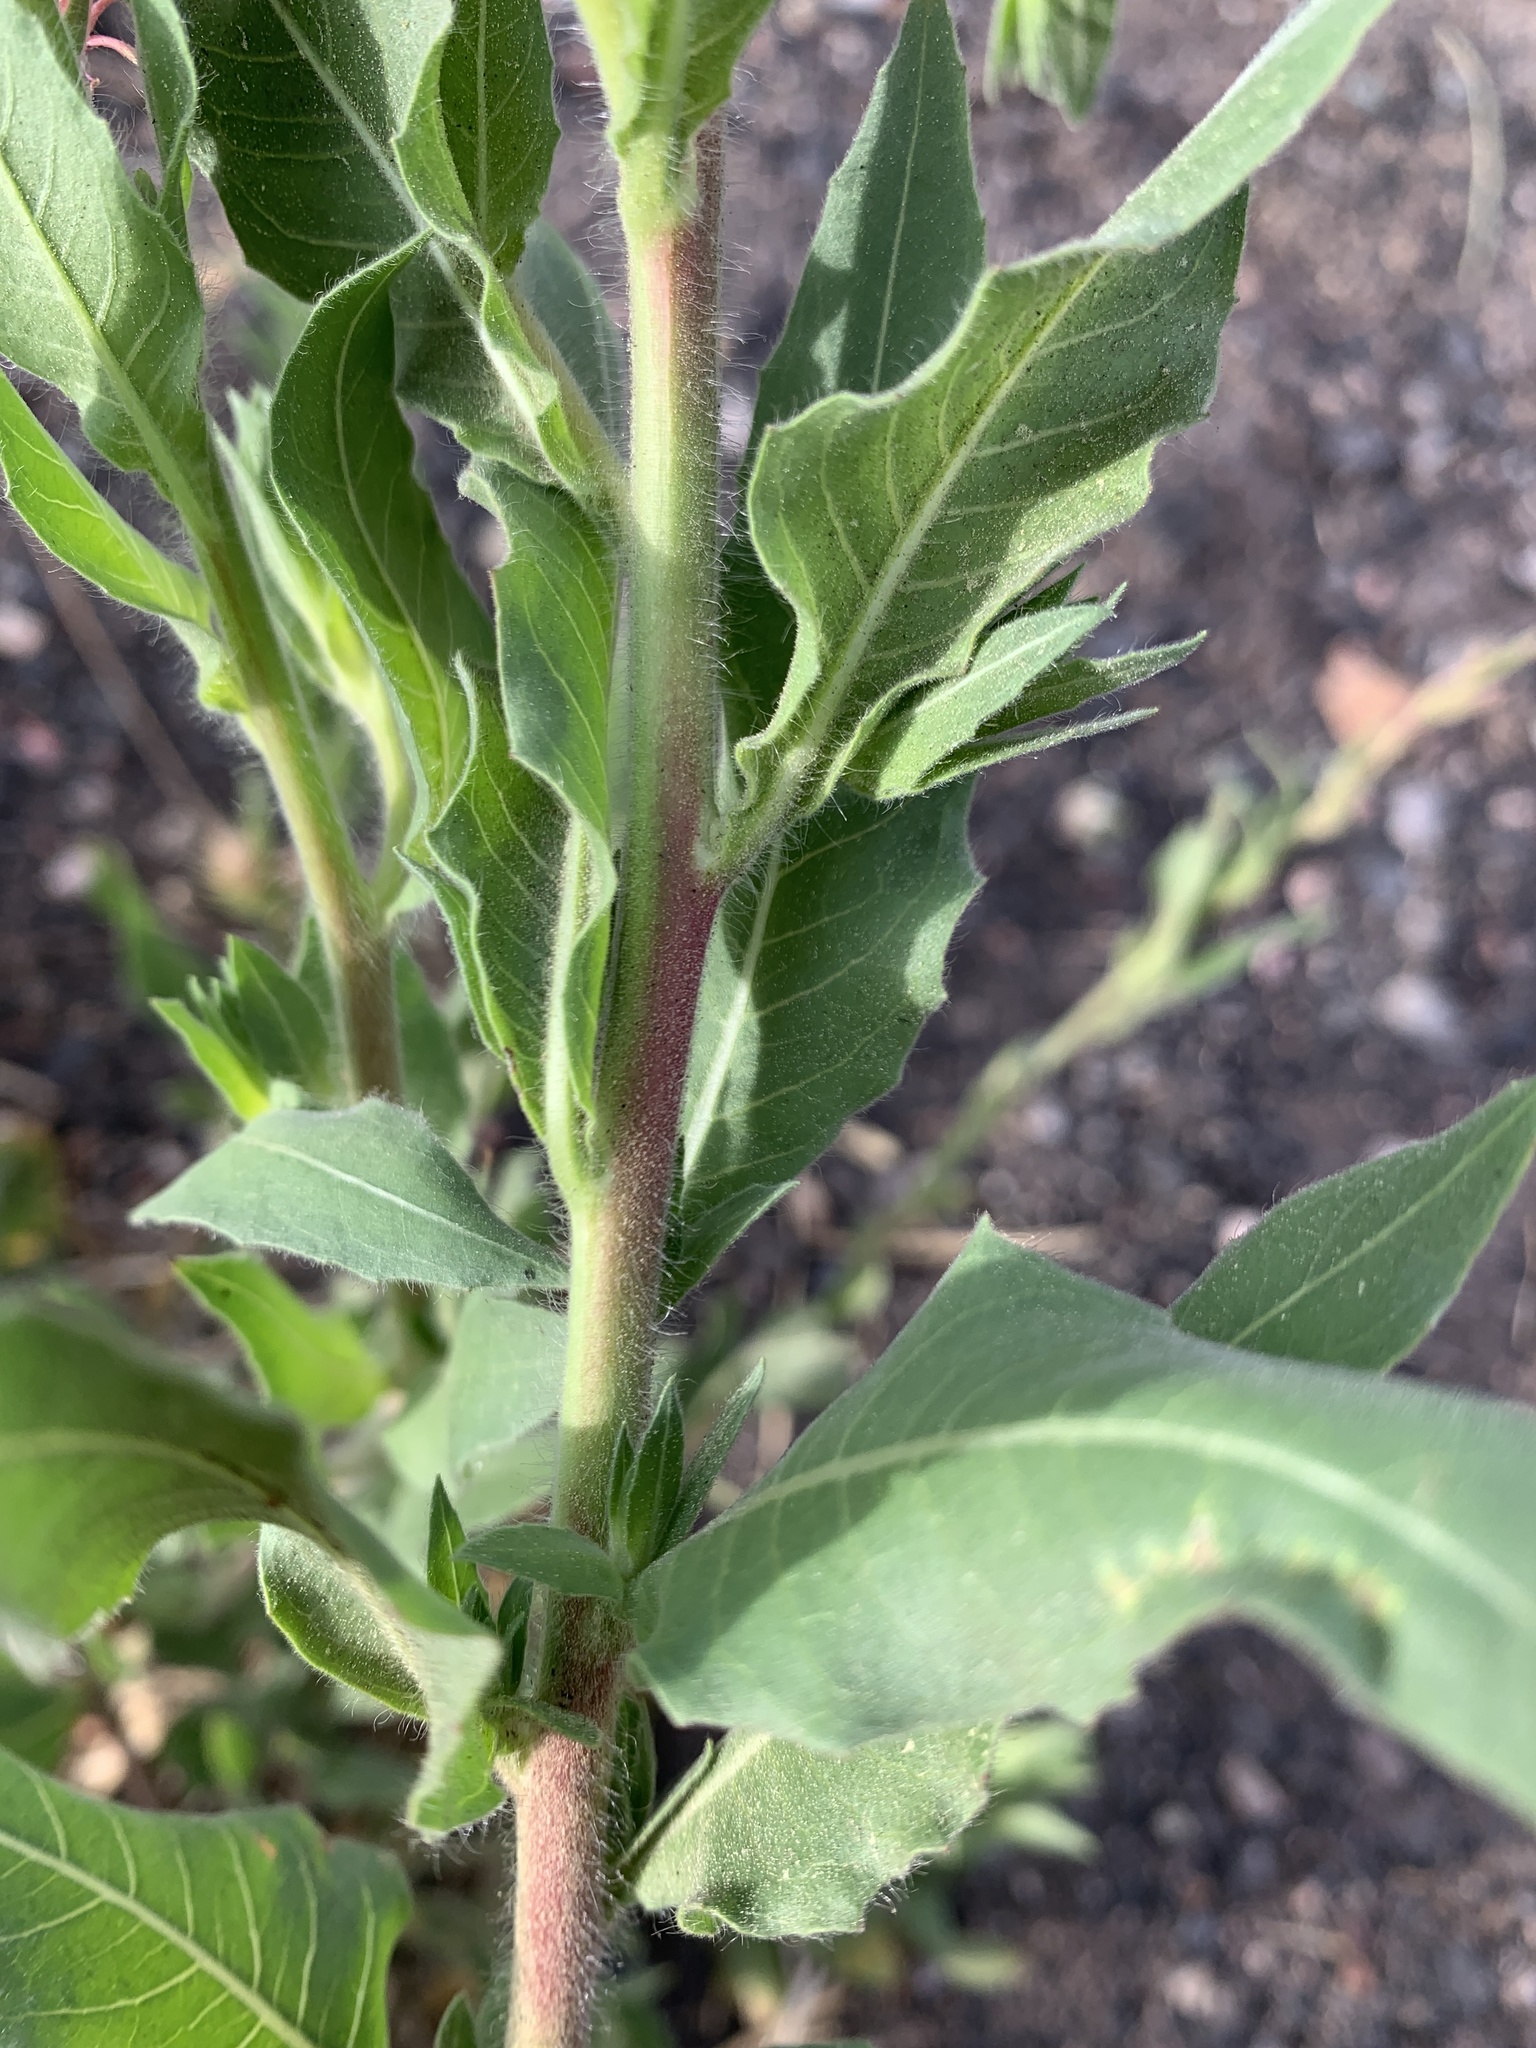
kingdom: Plantae
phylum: Tracheophyta
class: Magnoliopsida
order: Myrtales
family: Onagraceae
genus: Oenothera
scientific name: Oenothera curtiflora
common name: Velvetweed
